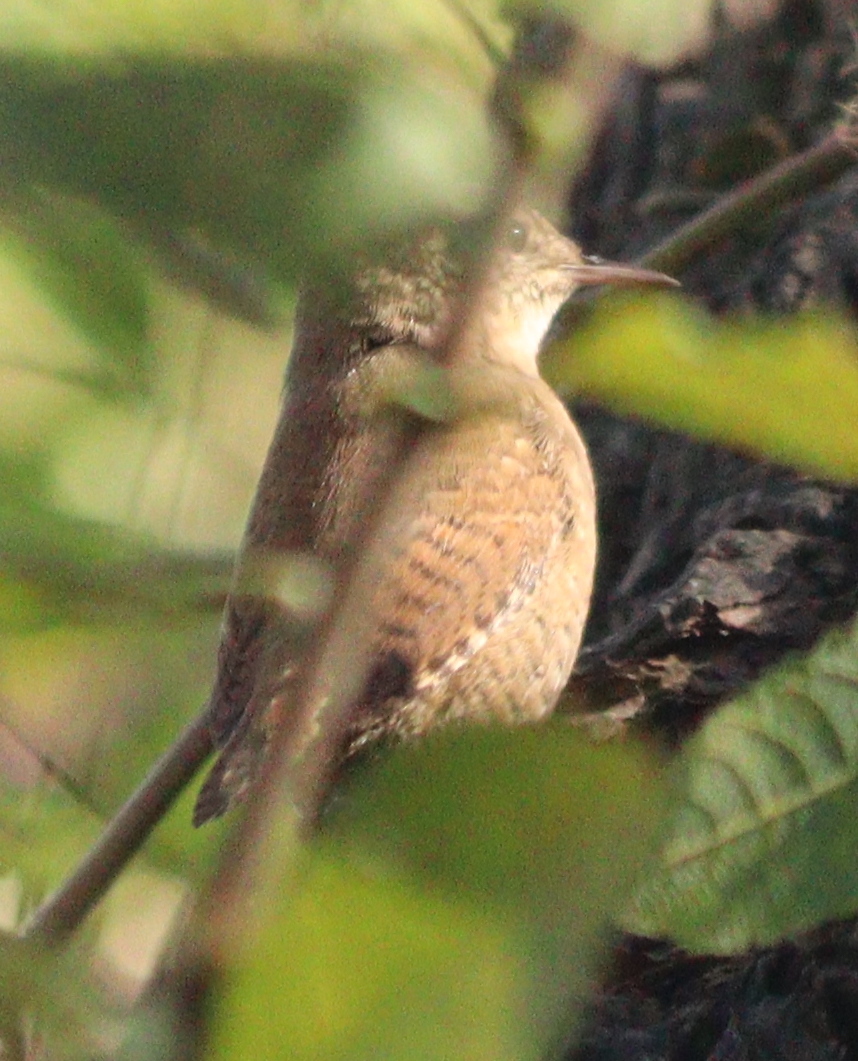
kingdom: Animalia
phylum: Chordata
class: Aves
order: Passeriformes
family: Troglodytidae
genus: Troglodytes
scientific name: Troglodytes troglodytes
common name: Eurasian wren
